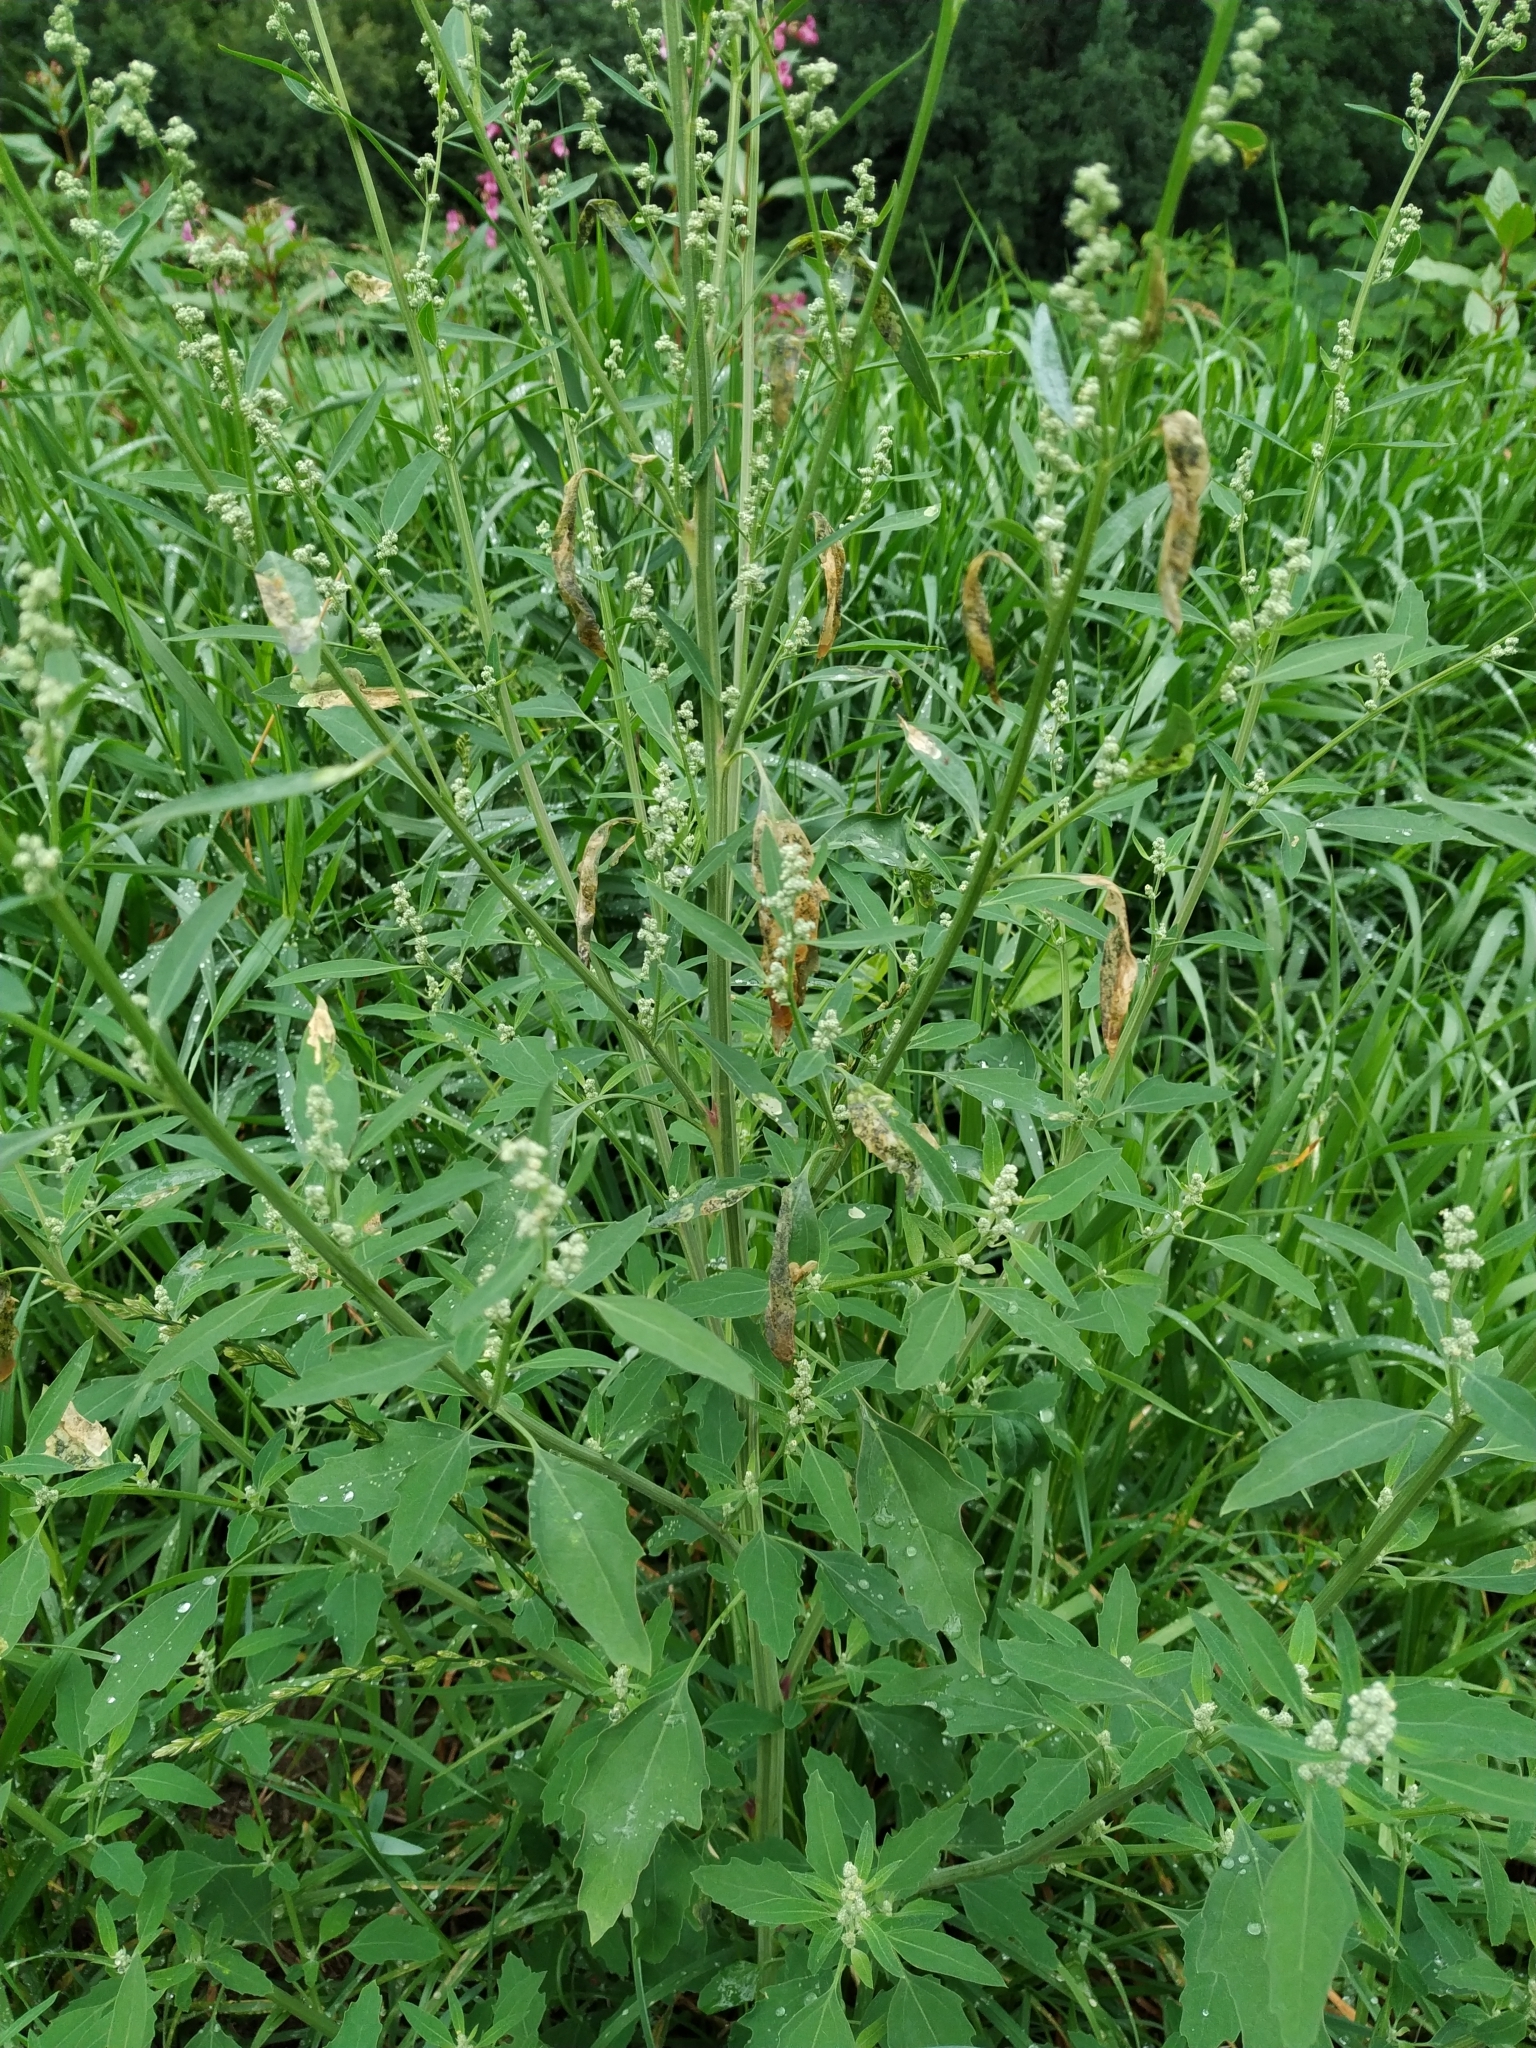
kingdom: Plantae
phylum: Tracheophyta
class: Magnoliopsida
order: Caryophyllales
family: Amaranthaceae
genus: Chenopodium
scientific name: Chenopodium album
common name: Fat-hen
